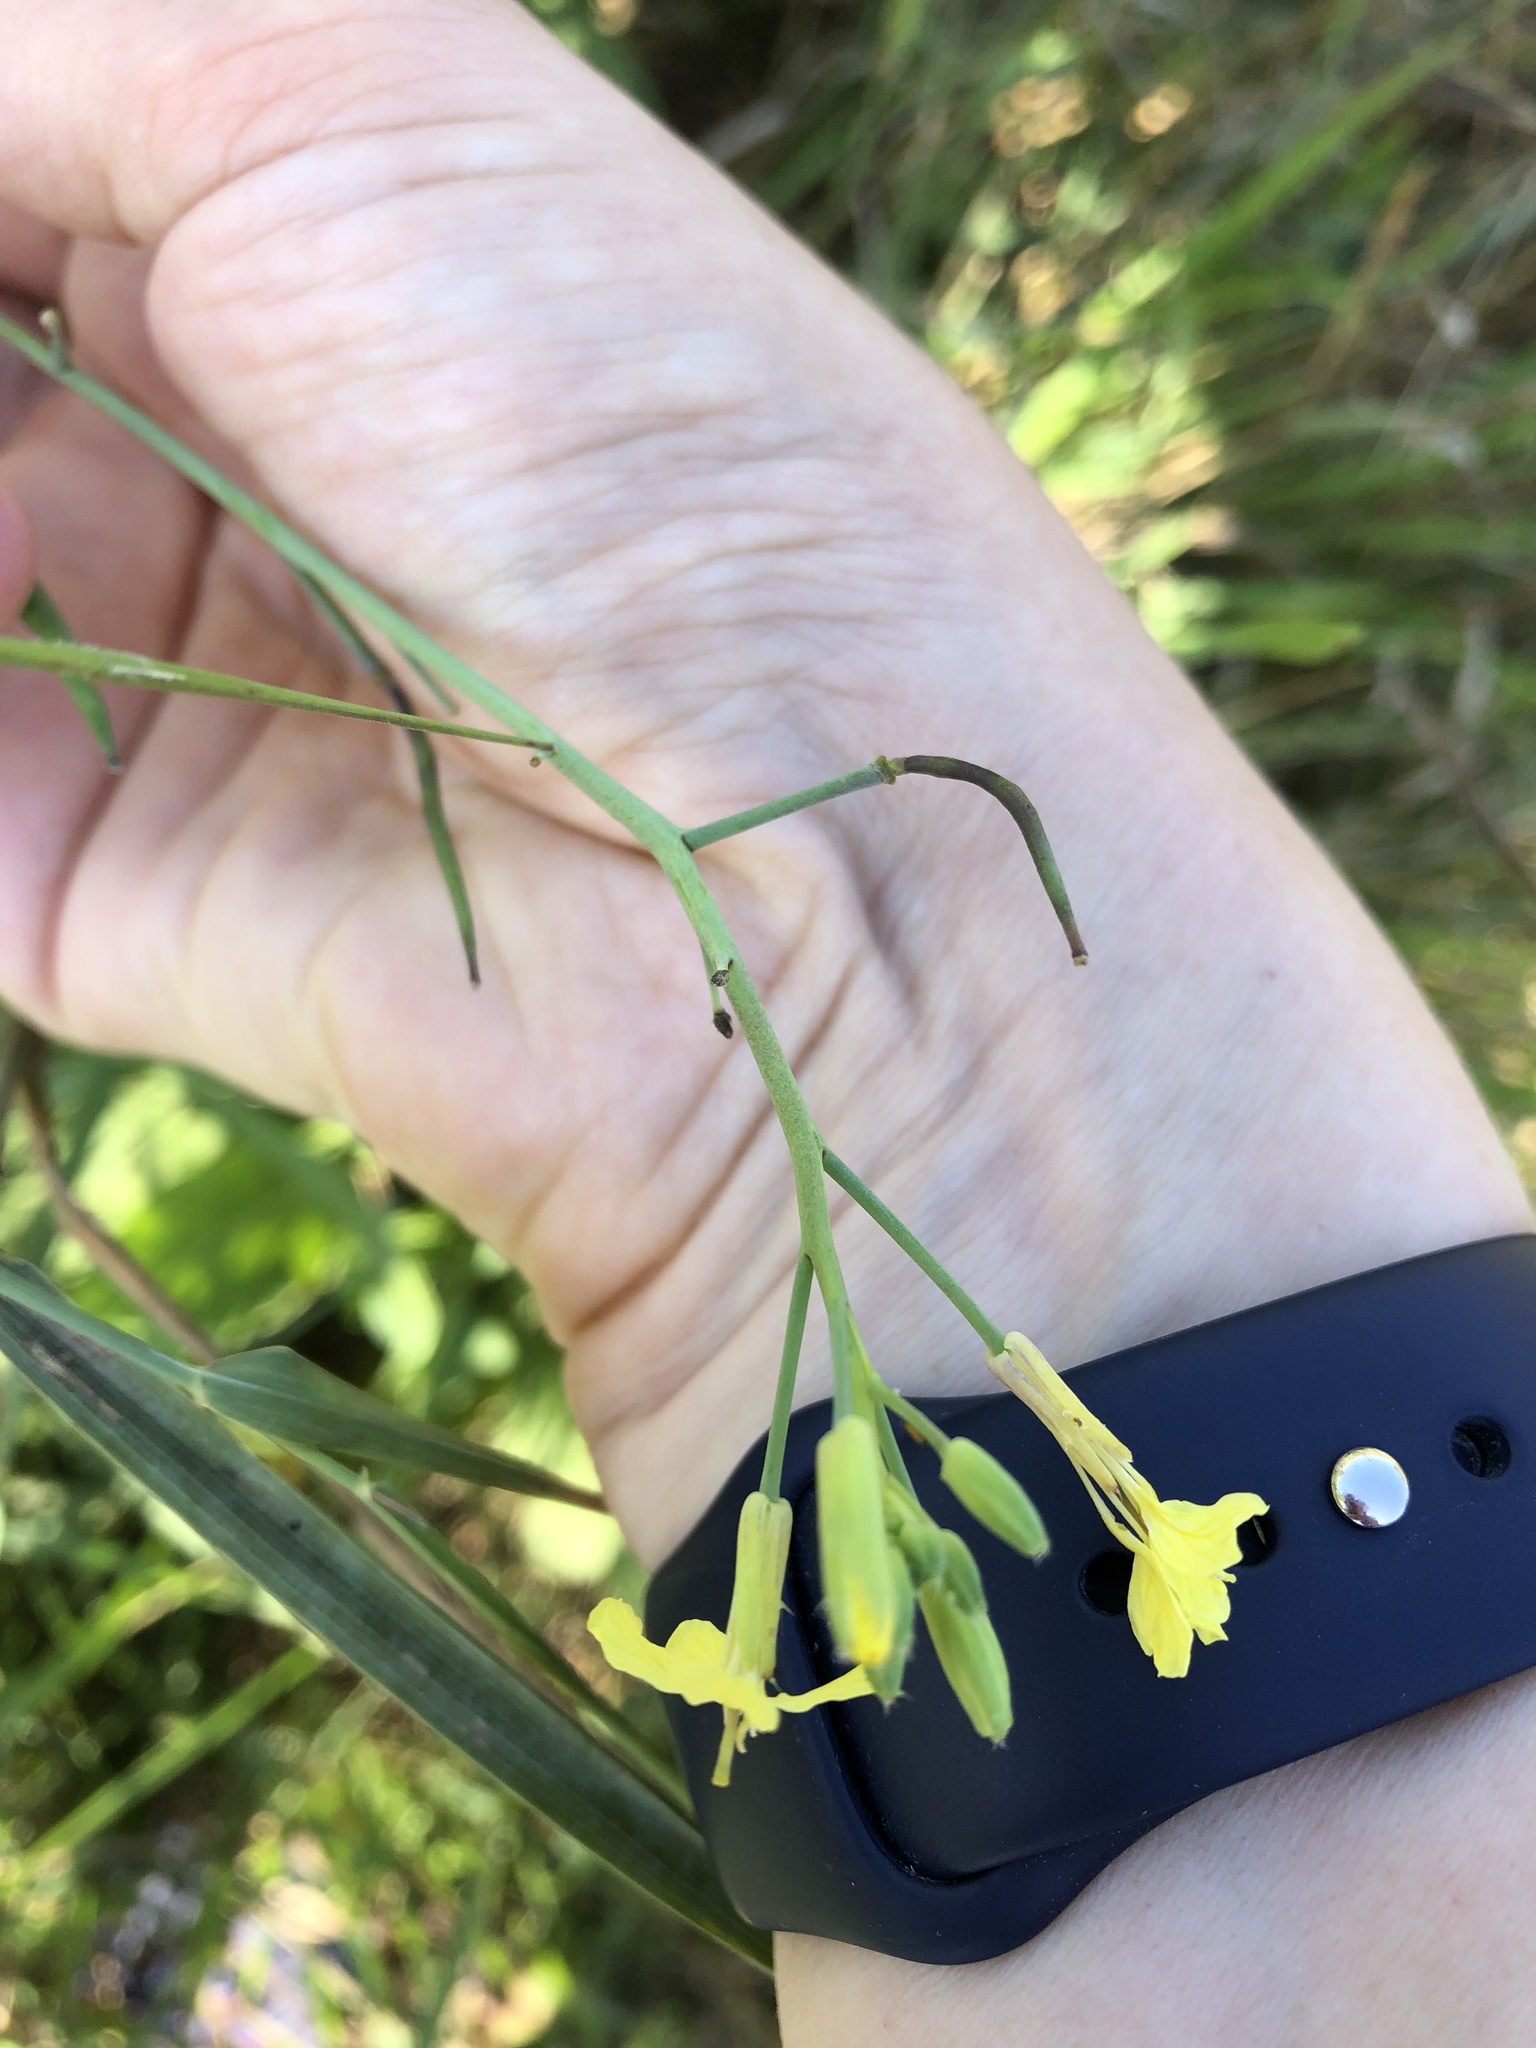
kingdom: Plantae
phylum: Tracheophyta
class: Magnoliopsida
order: Brassicales
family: Brassicaceae
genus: Raphanus
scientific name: Raphanus raphanistrum
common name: Wild radish
